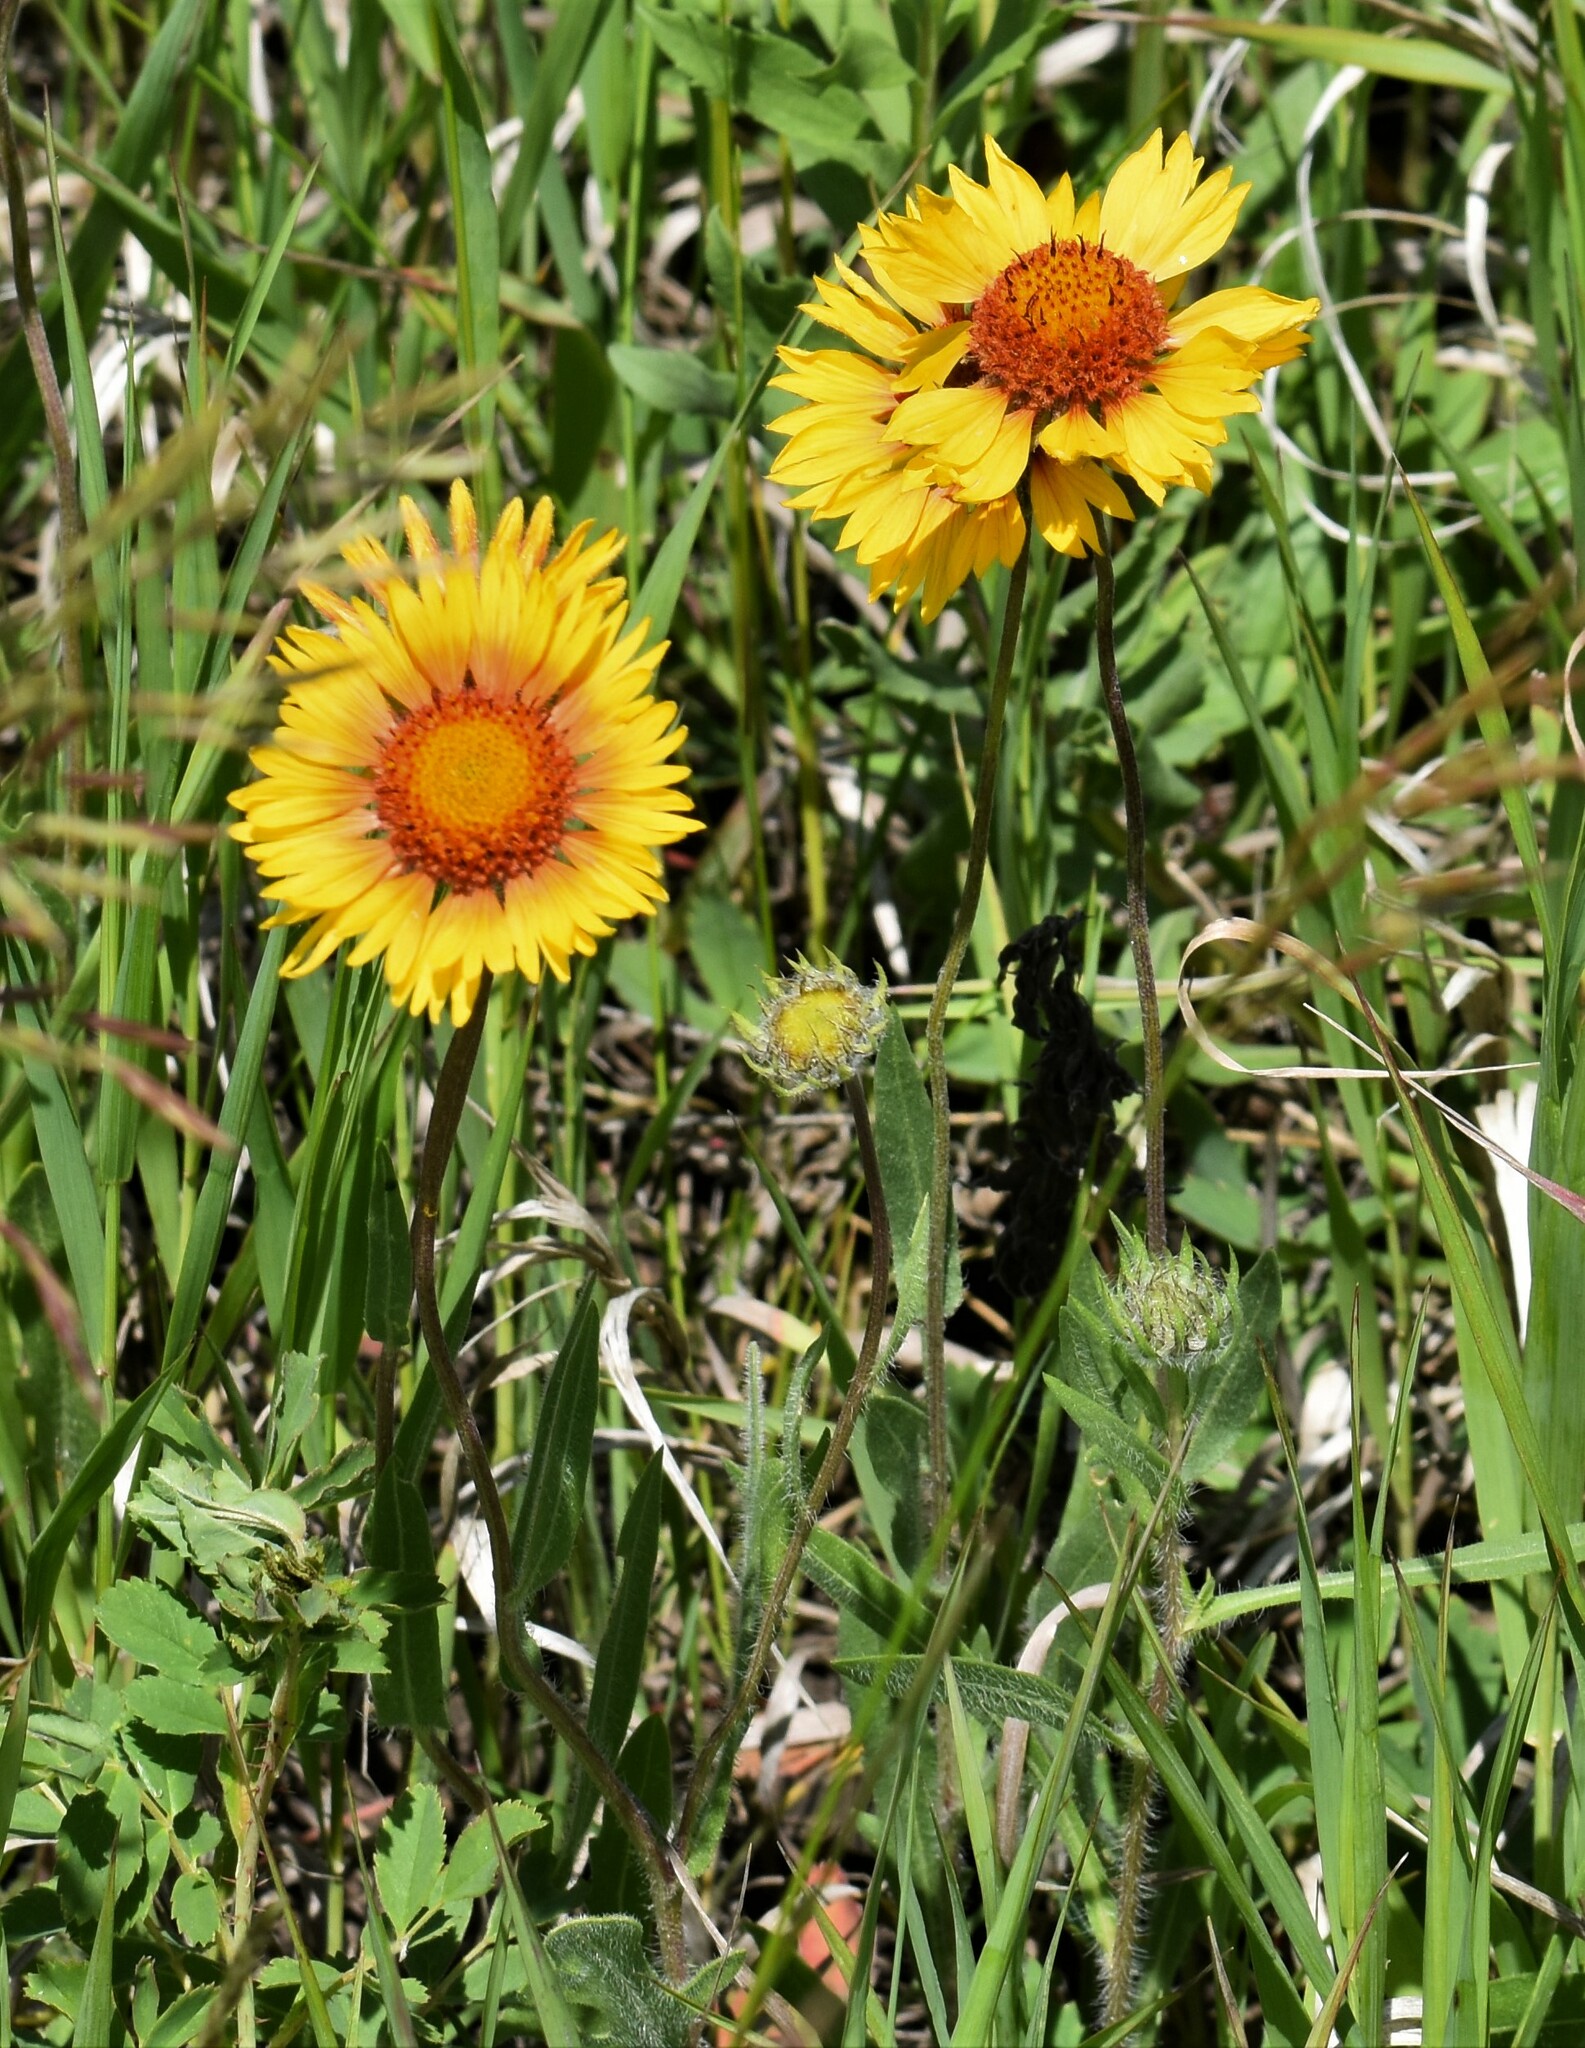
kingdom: Plantae
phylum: Tracheophyta
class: Magnoliopsida
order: Asterales
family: Asteraceae
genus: Gaillardia
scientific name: Gaillardia aristata
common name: Blanket-flower
